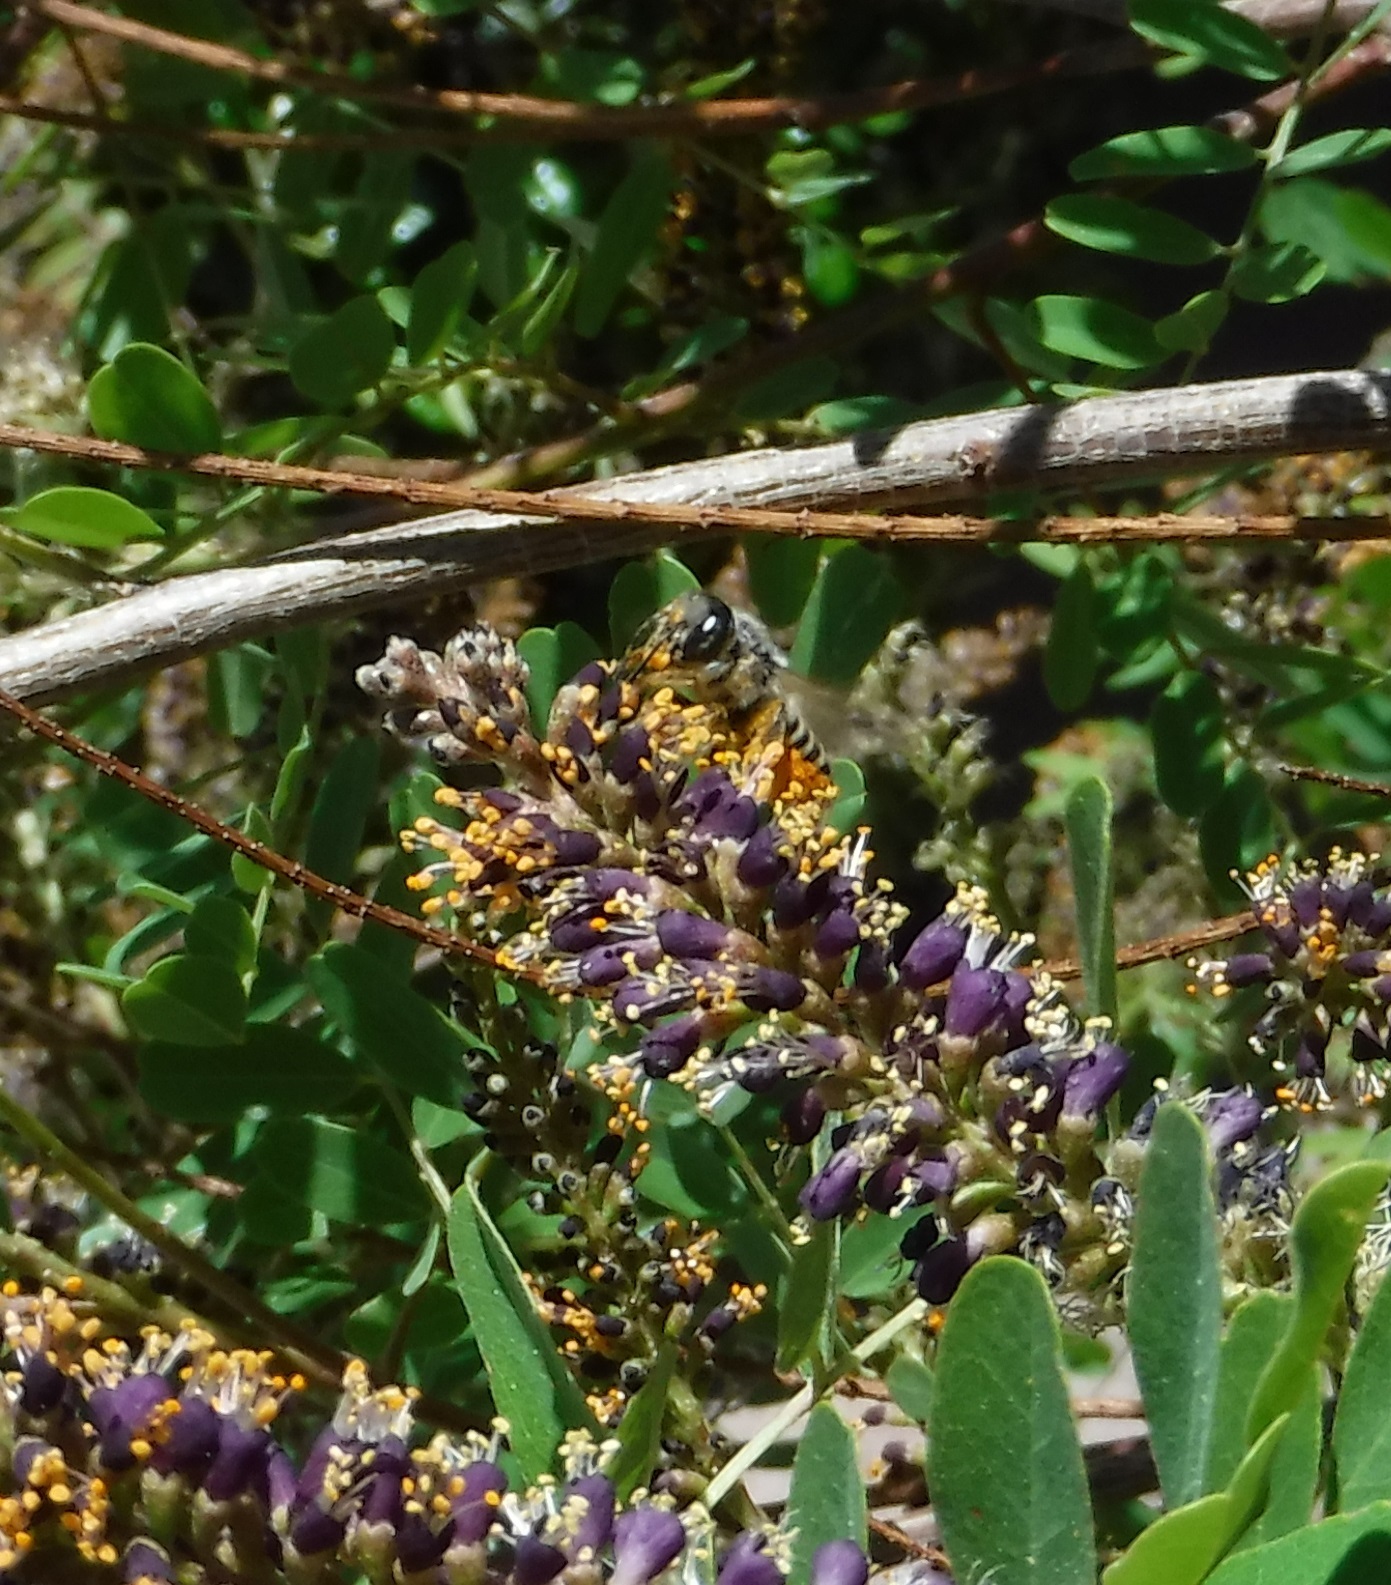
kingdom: Animalia
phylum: Arthropoda
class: Insecta
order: Hymenoptera
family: Megachilidae
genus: Megachile
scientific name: Megachile
